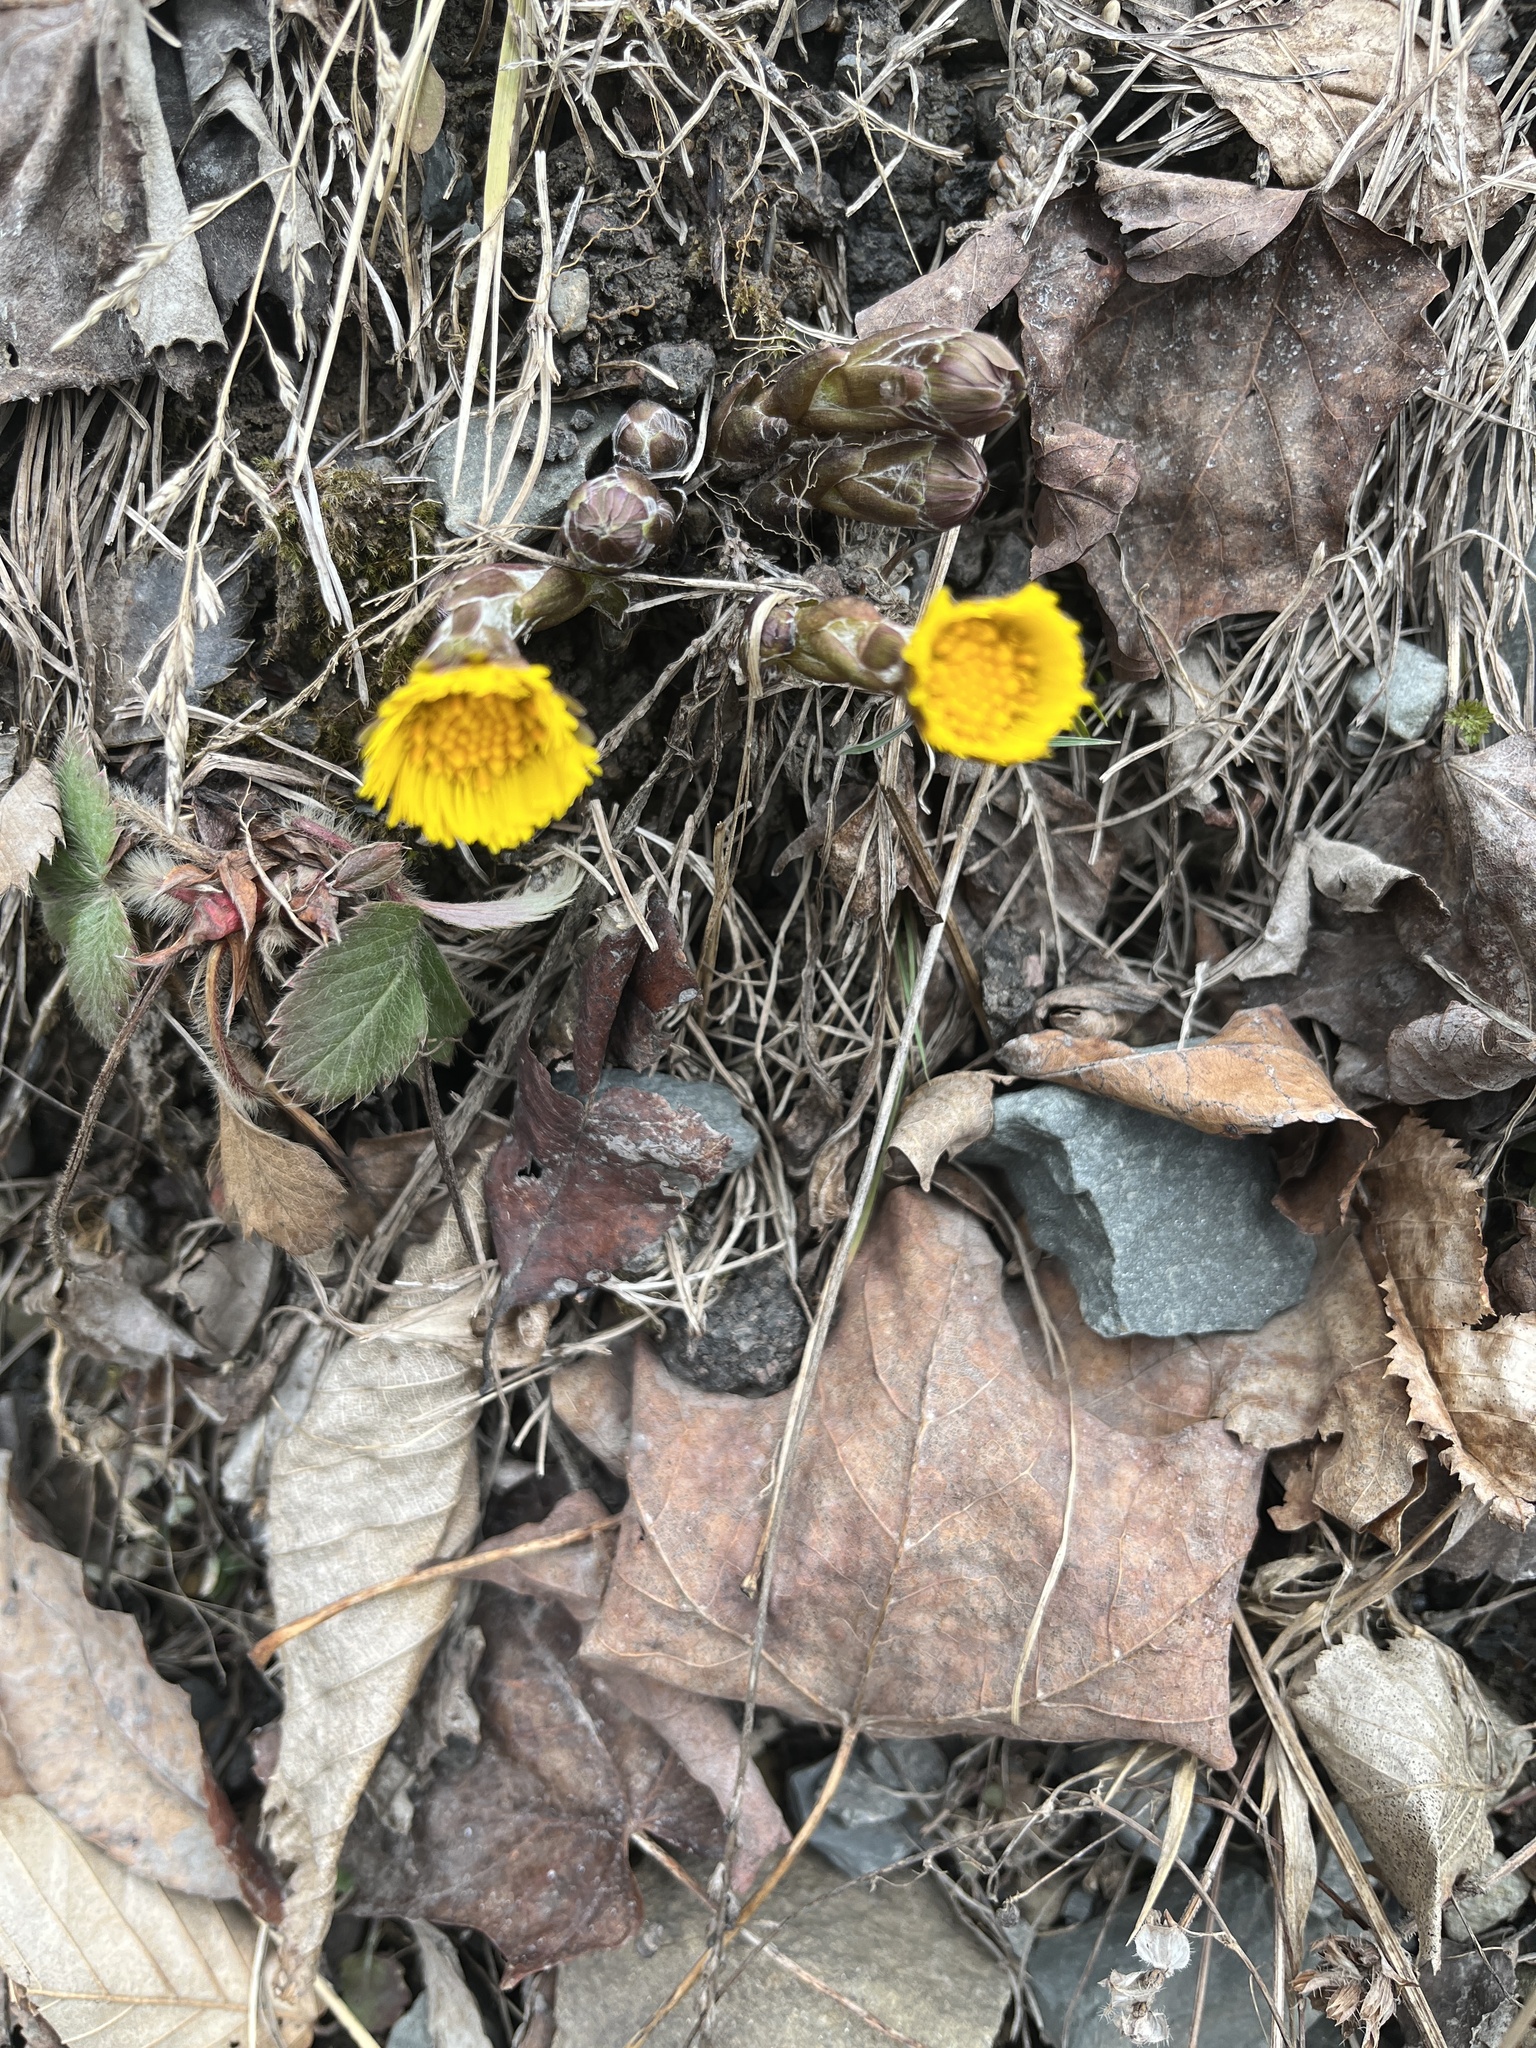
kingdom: Plantae
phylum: Tracheophyta
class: Magnoliopsida
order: Asterales
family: Asteraceae
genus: Tussilago
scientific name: Tussilago farfara
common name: Coltsfoot
